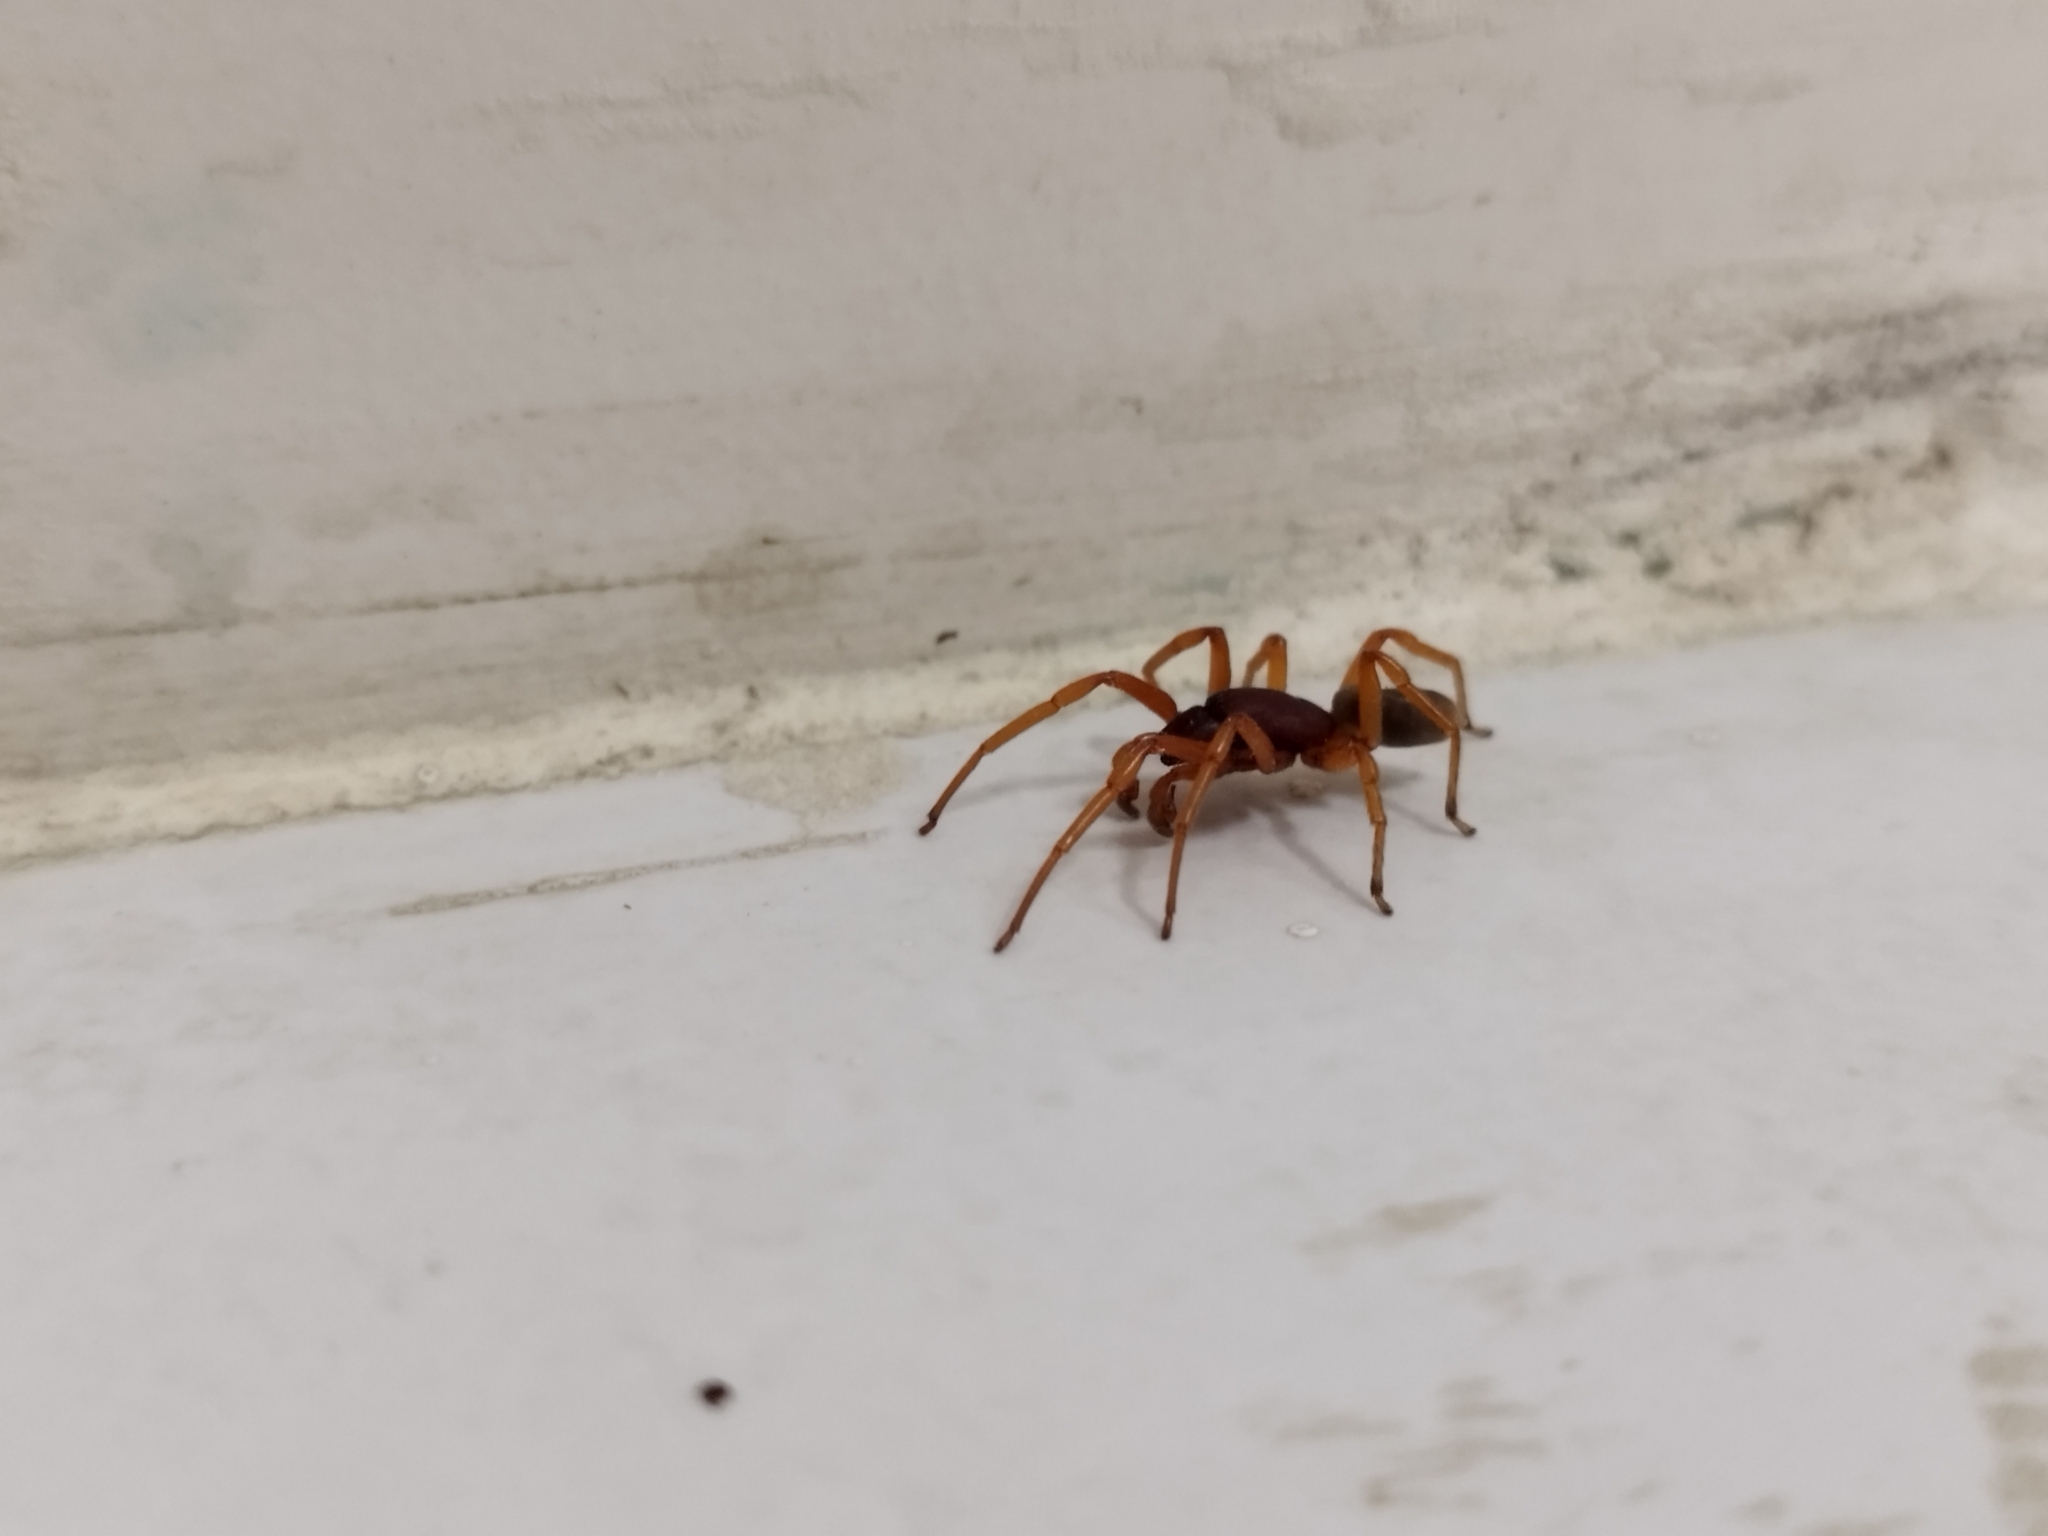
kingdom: Animalia
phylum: Arthropoda
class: Arachnida
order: Araneae
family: Dysderidae
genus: Dysdera
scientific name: Dysdera crocata
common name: Woodlouse spider
